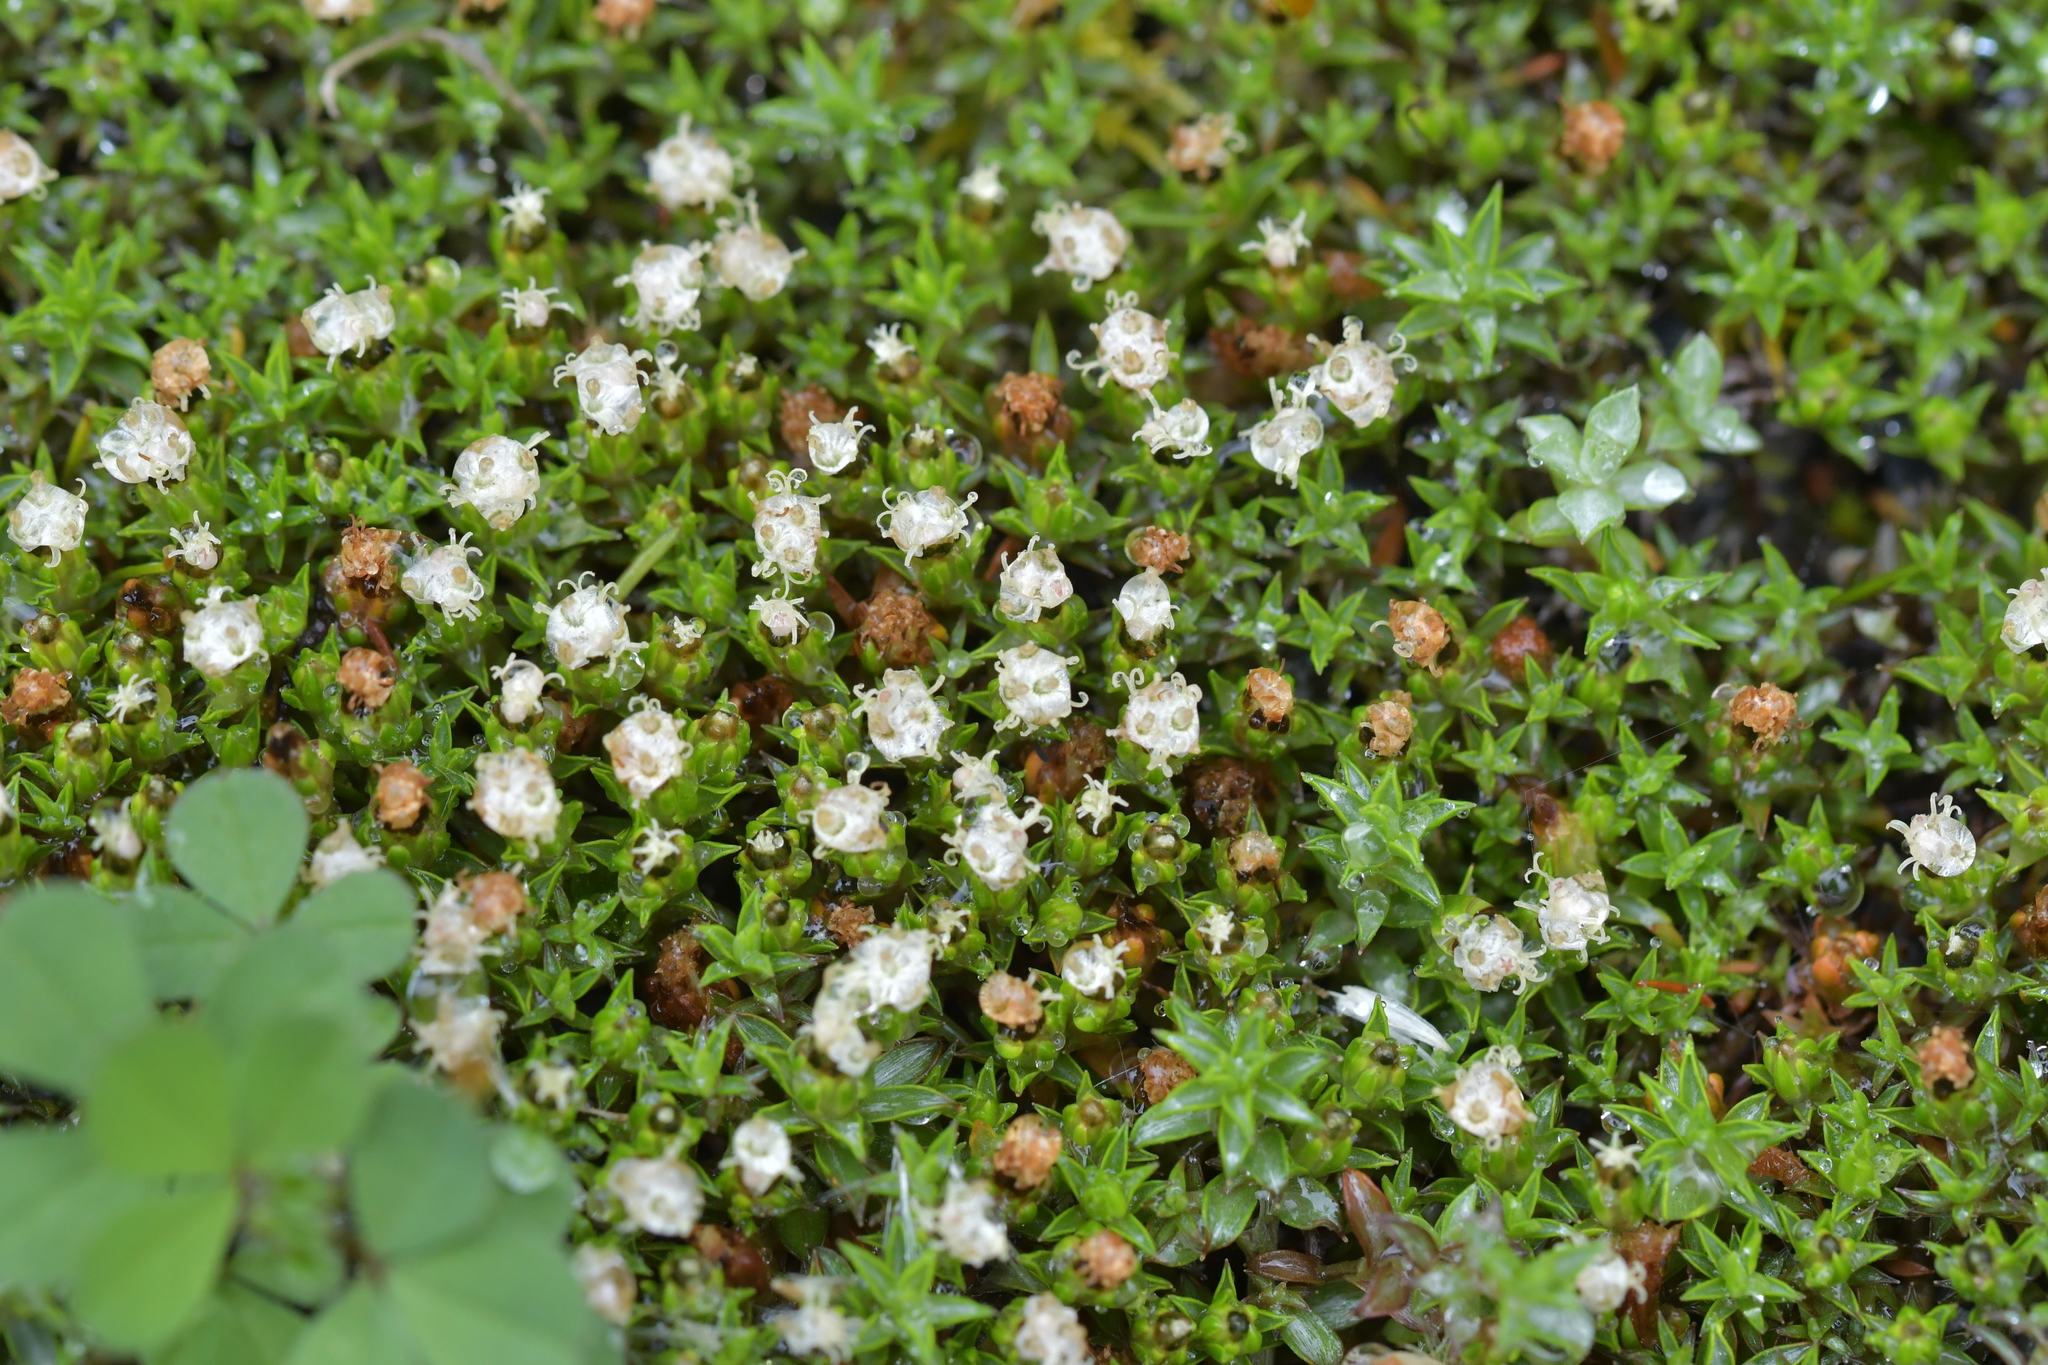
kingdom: Plantae
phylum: Tracheophyta
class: Magnoliopsida
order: Asterales
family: Asteraceae
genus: Raoulia
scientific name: Raoulia tenuicaulis
